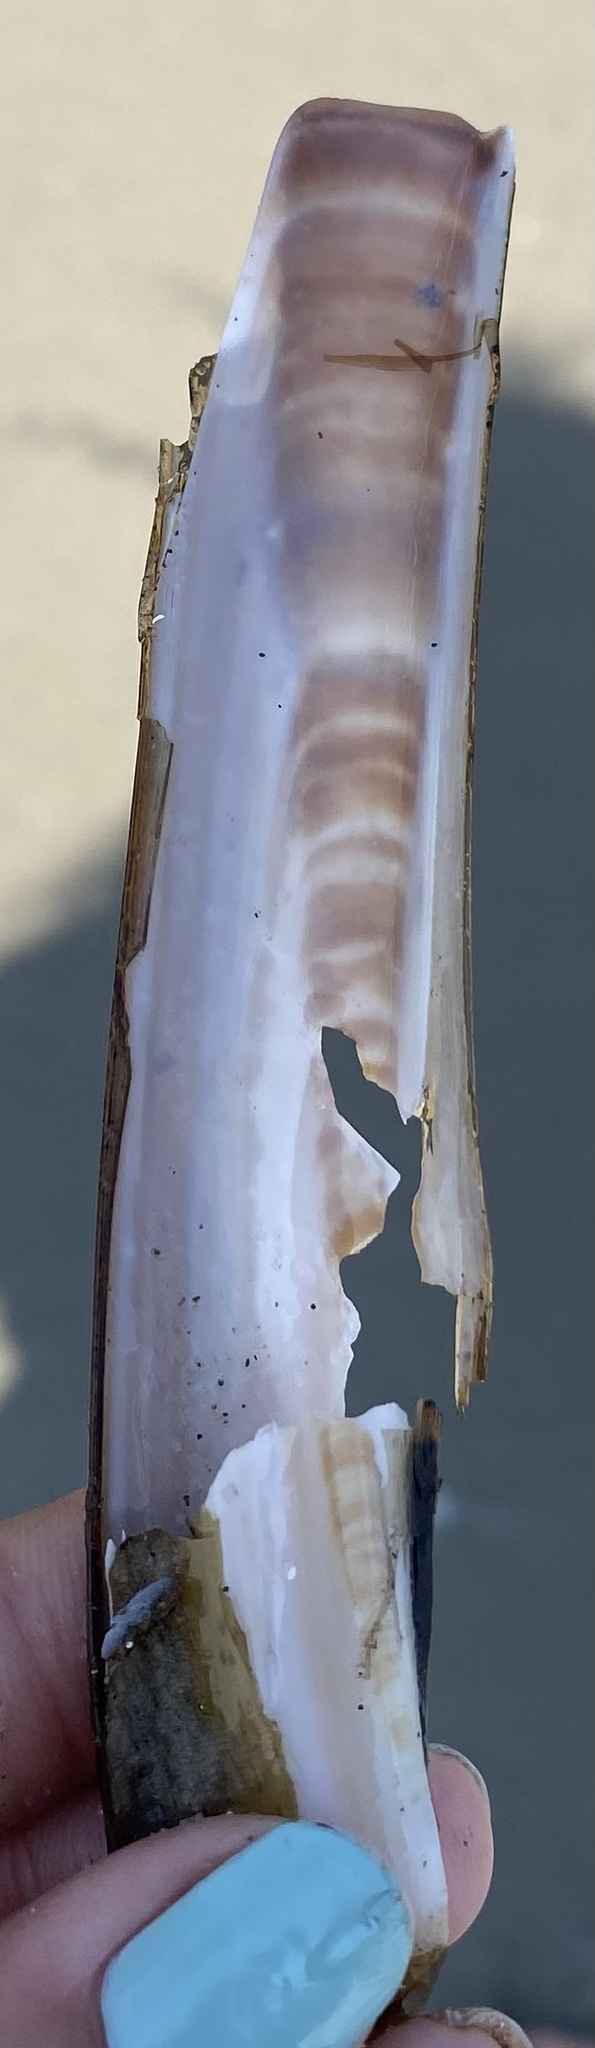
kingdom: Animalia
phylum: Mollusca
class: Bivalvia
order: Adapedonta
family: Pharidae
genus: Ensis
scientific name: Ensis leei
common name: American jack knife clam
